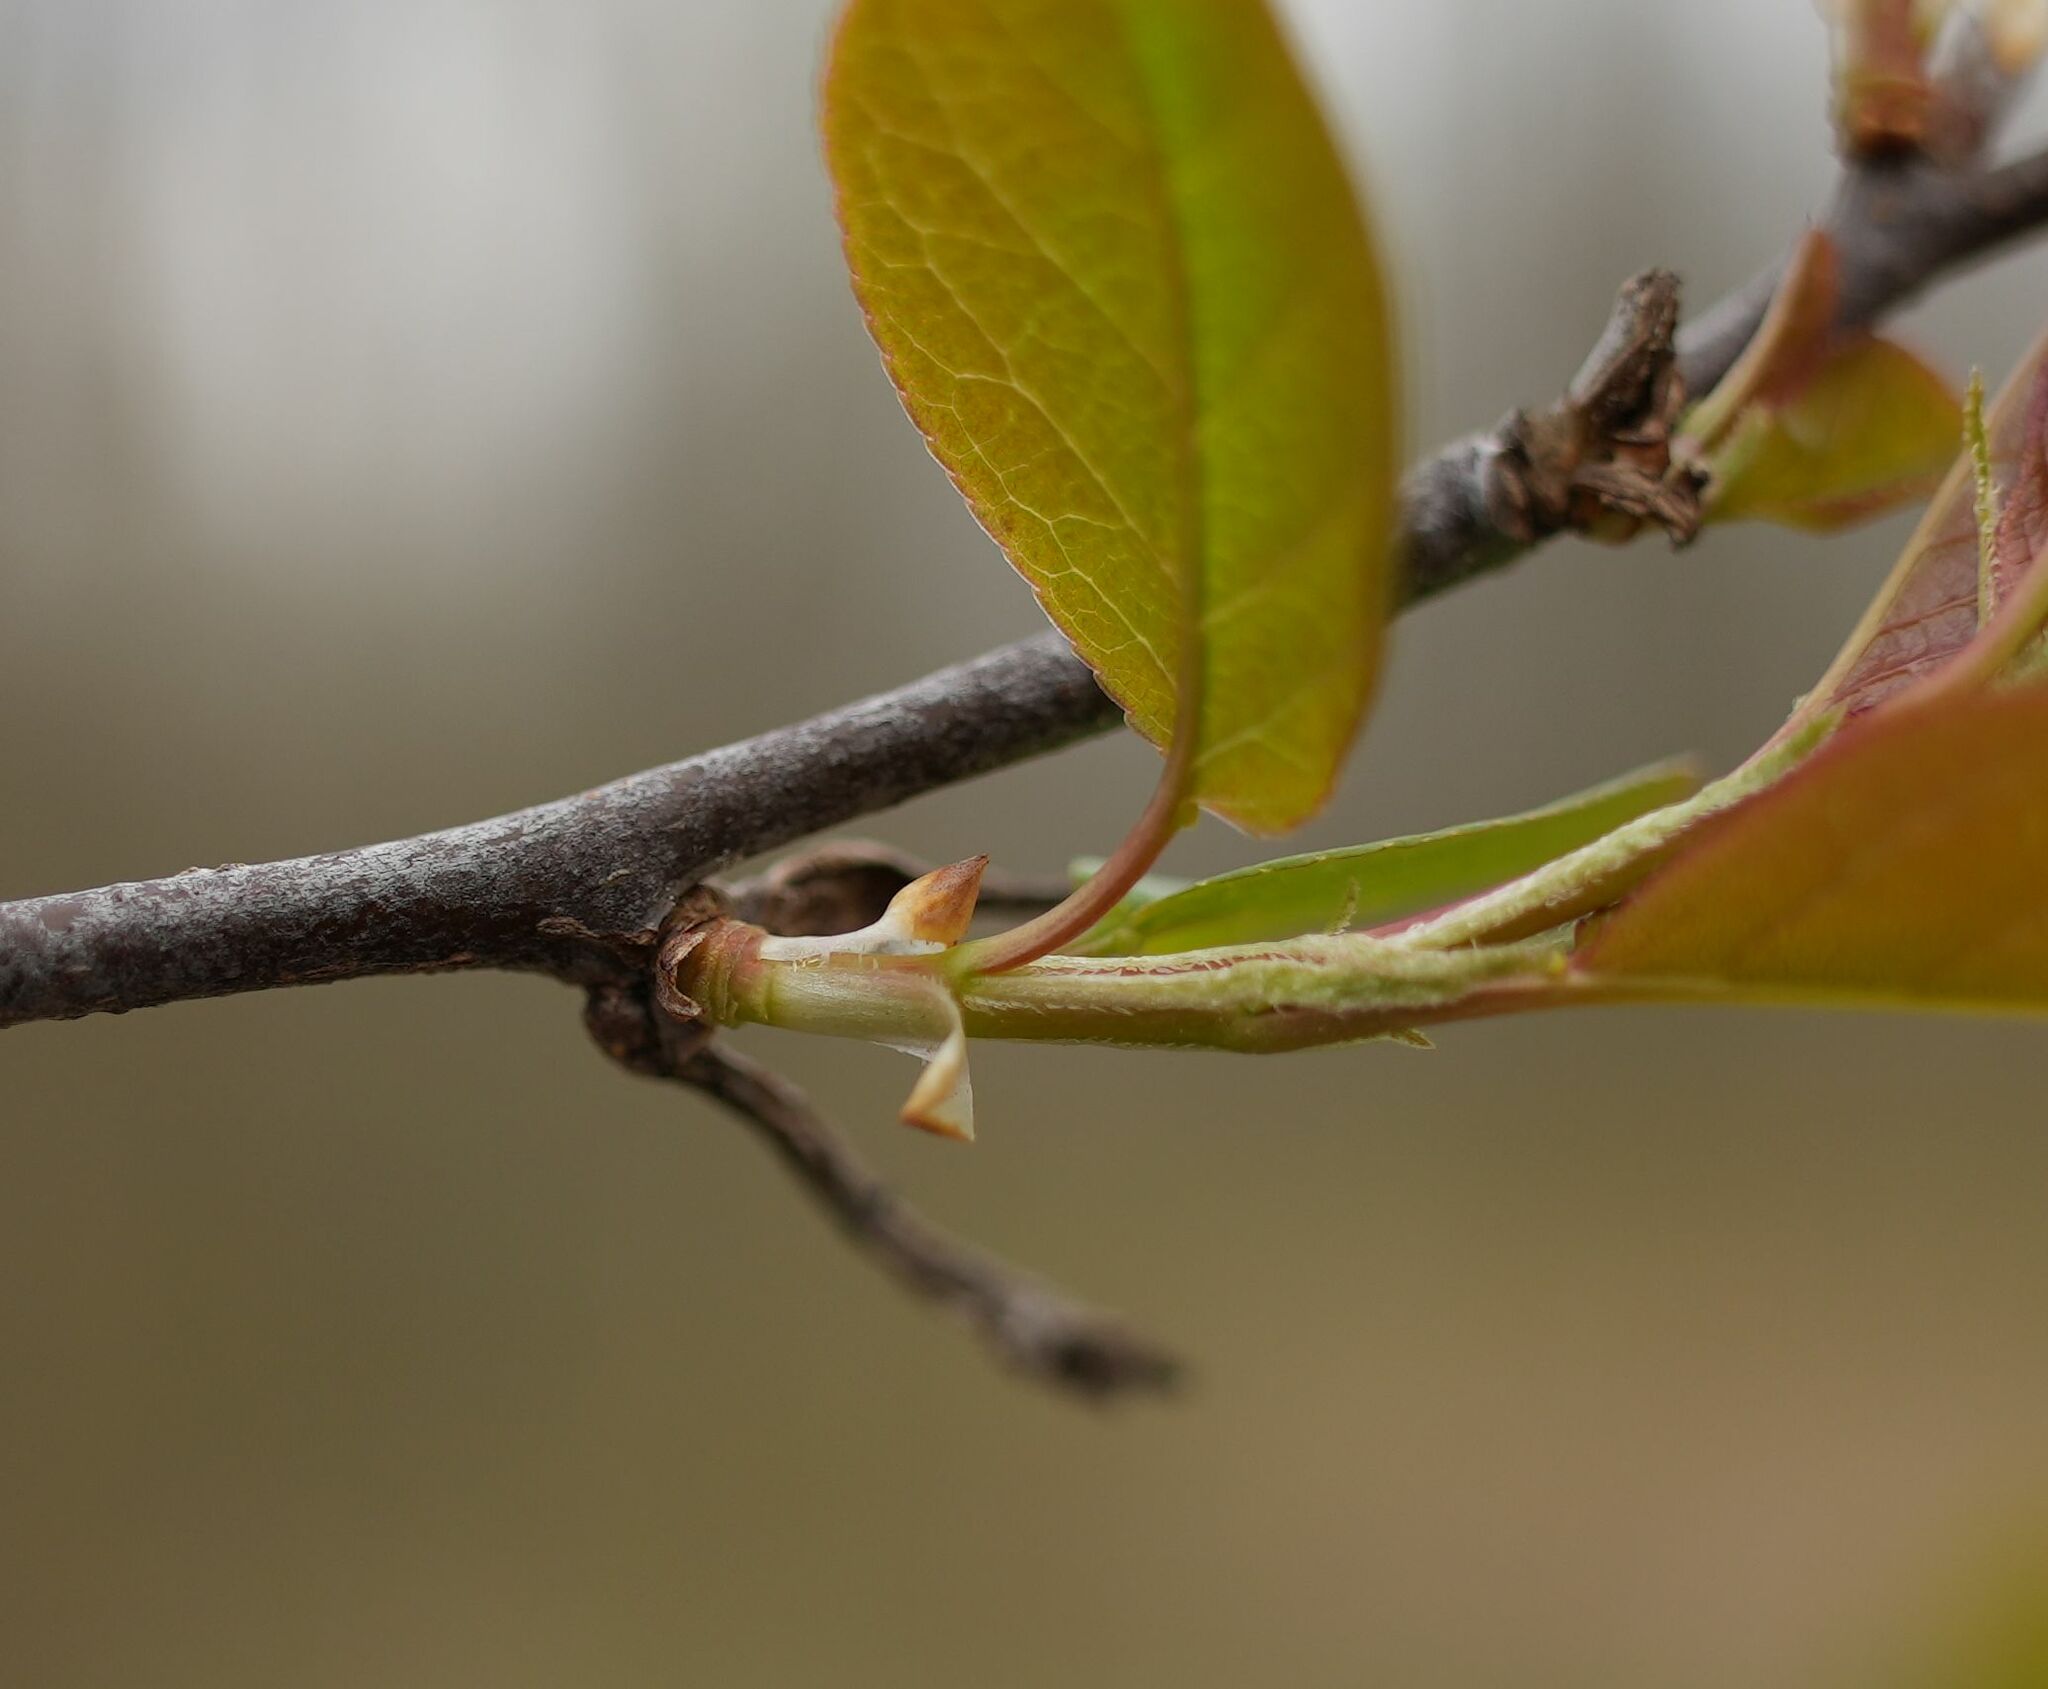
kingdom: Plantae
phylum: Tracheophyta
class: Magnoliopsida
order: Rosales
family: Rosaceae
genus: Prunus
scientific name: Prunus virginiana
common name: Chokecherry
